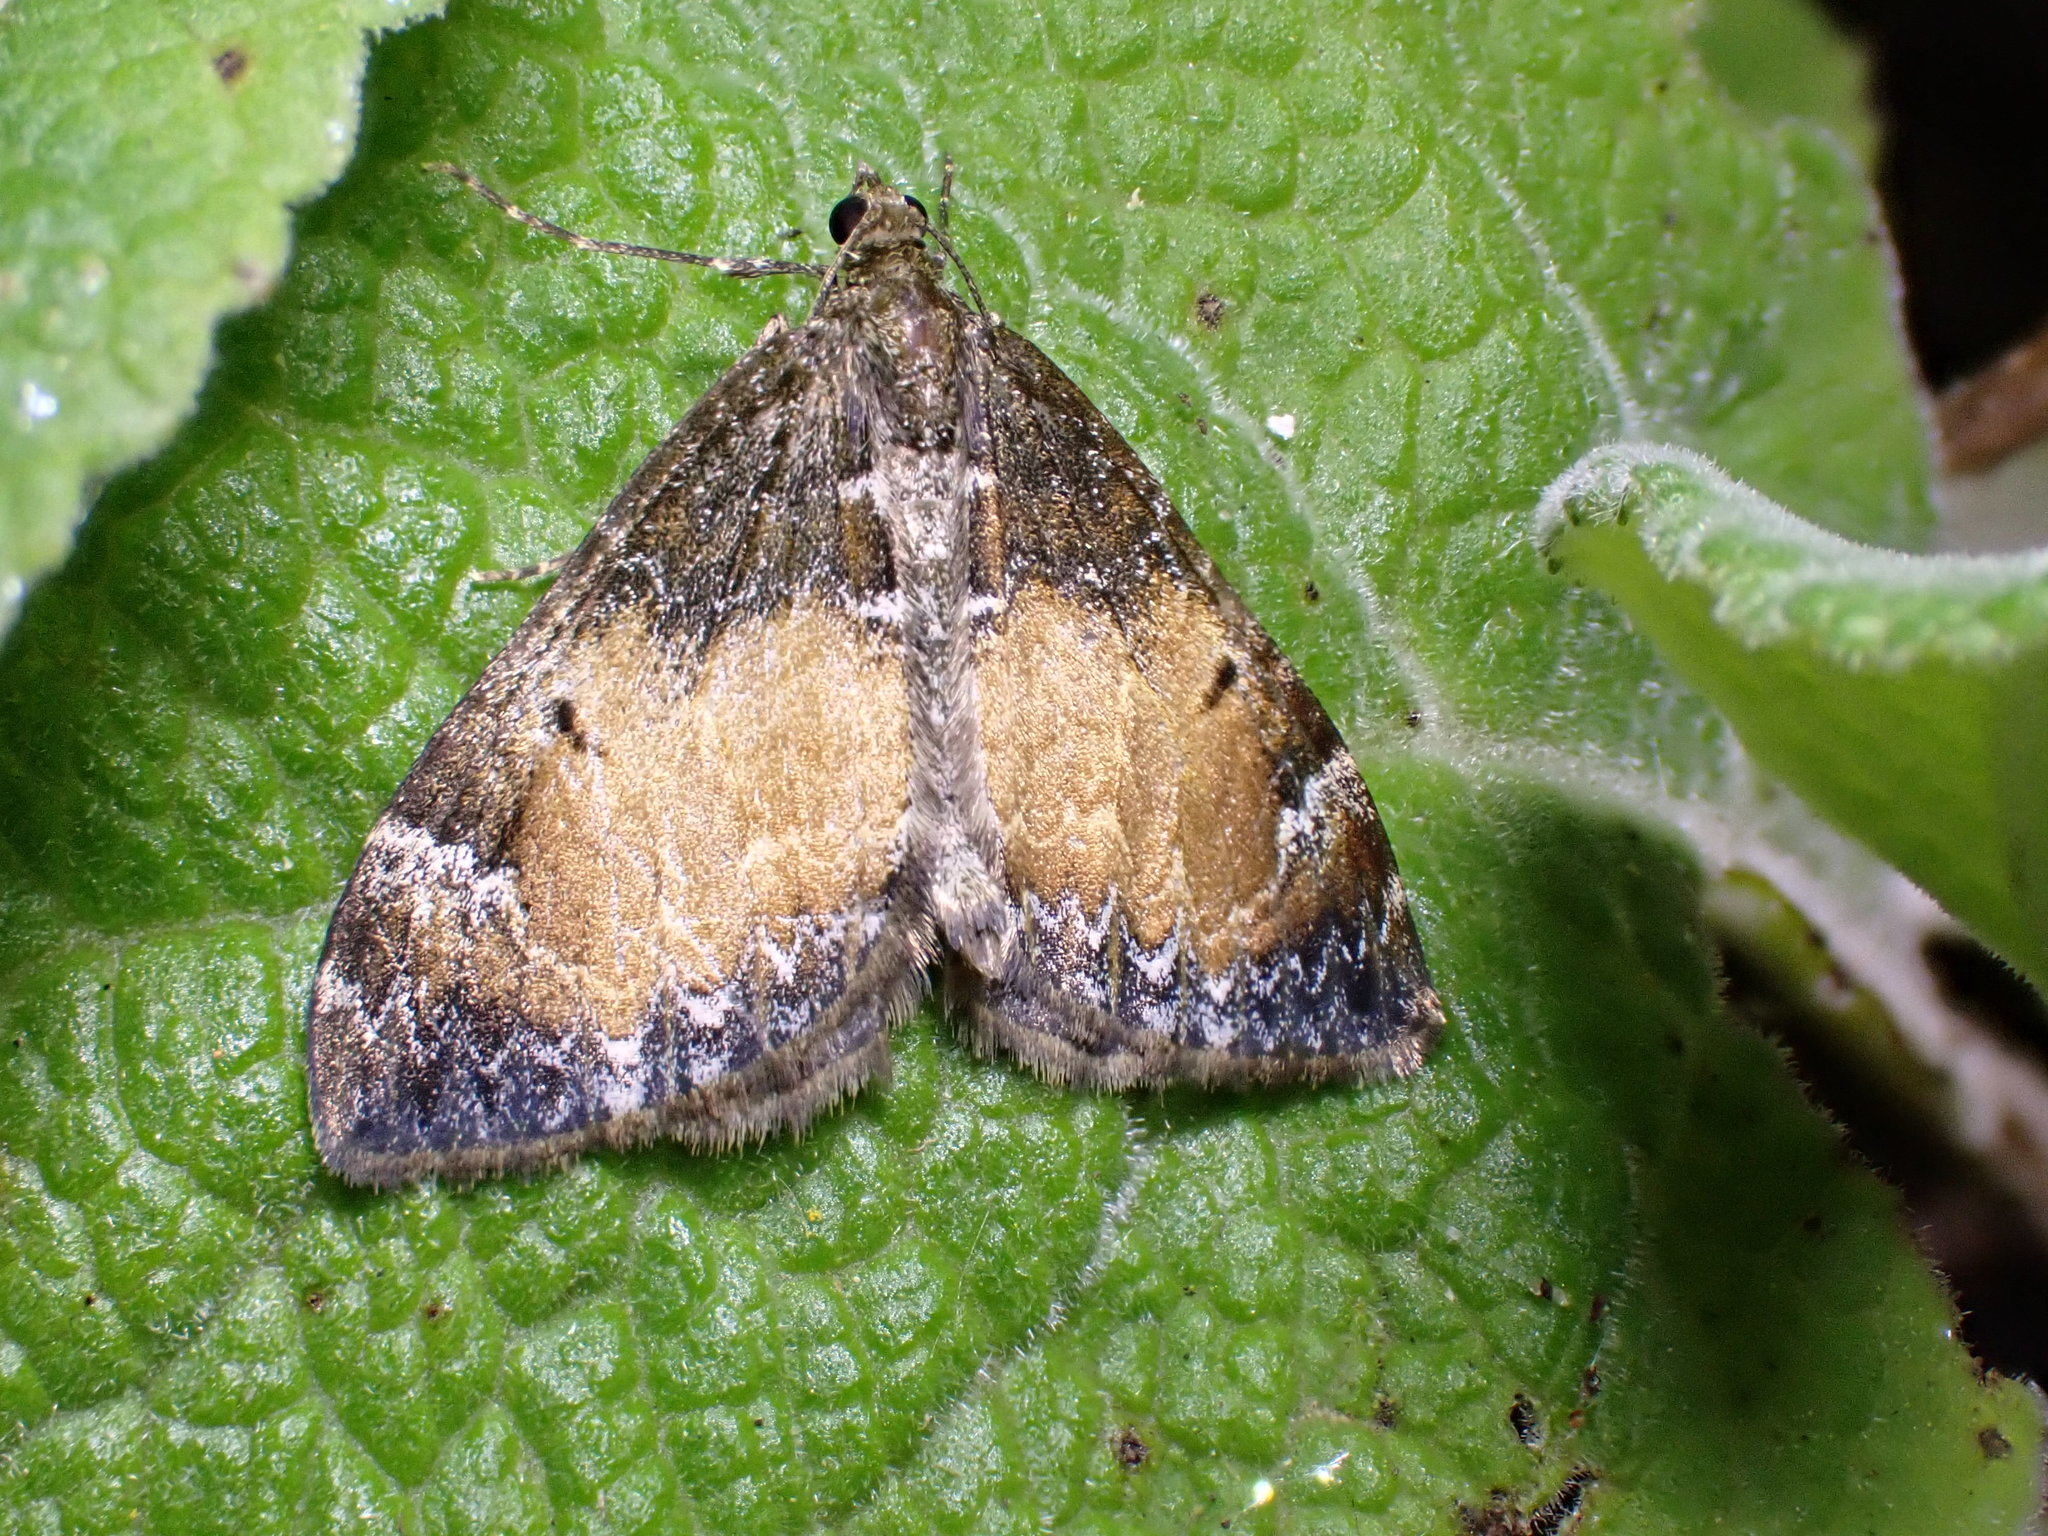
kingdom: Animalia
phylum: Arthropoda
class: Insecta
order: Lepidoptera
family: Geometridae
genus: Dysstroma
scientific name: Dysstroma truncata
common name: Common marbled carpet
